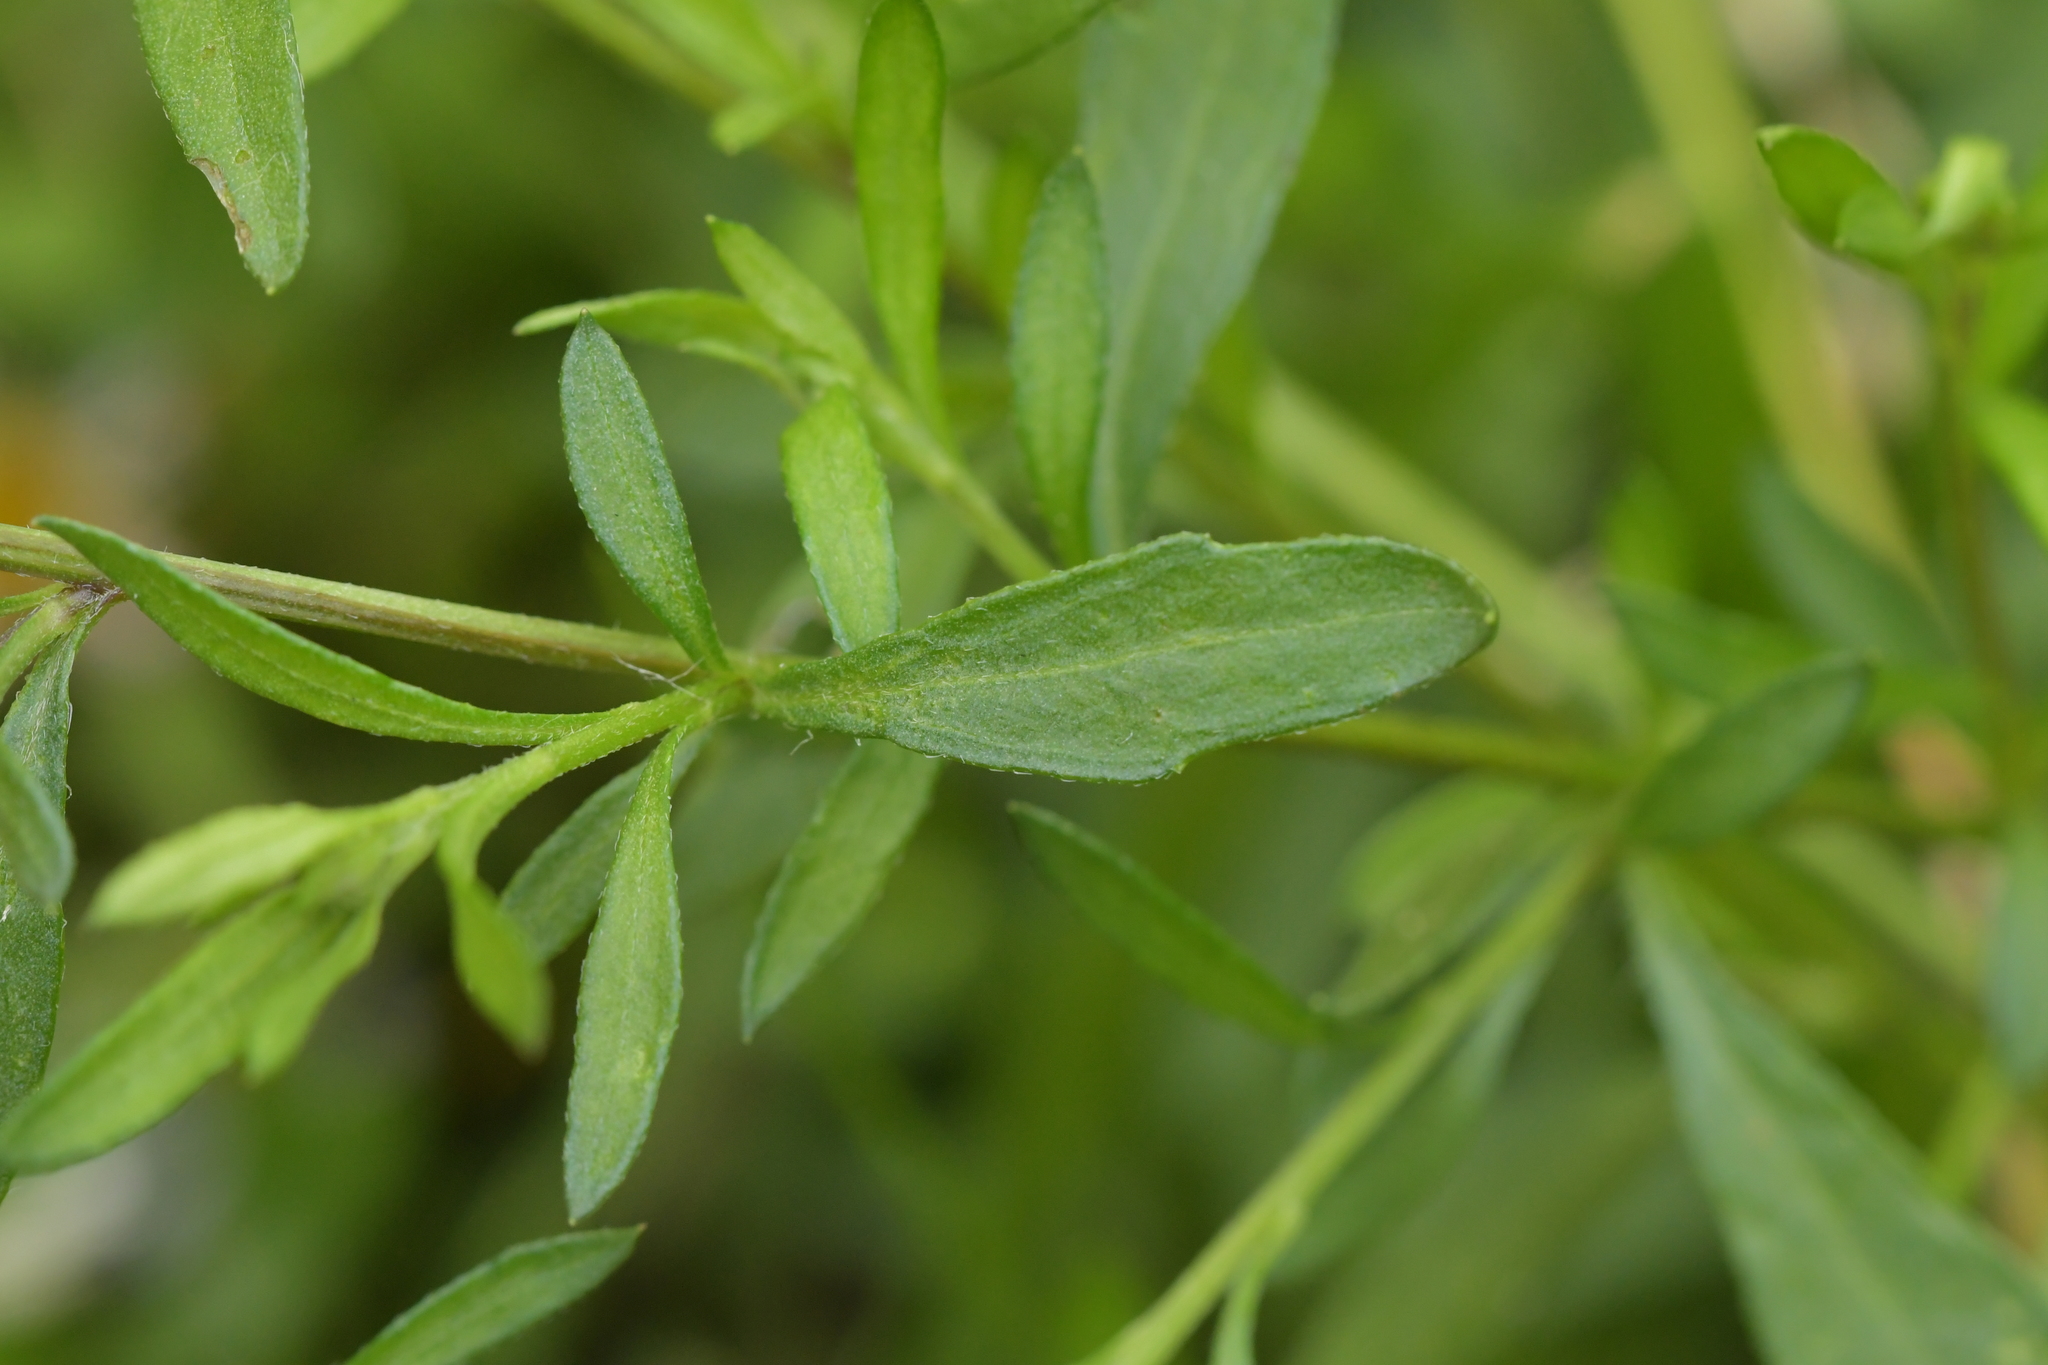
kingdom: Plantae
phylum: Tracheophyta
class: Magnoliopsida
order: Asterales
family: Asteraceae
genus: Erigeron
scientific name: Erigeron karvinskianus
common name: Mexican fleabane
